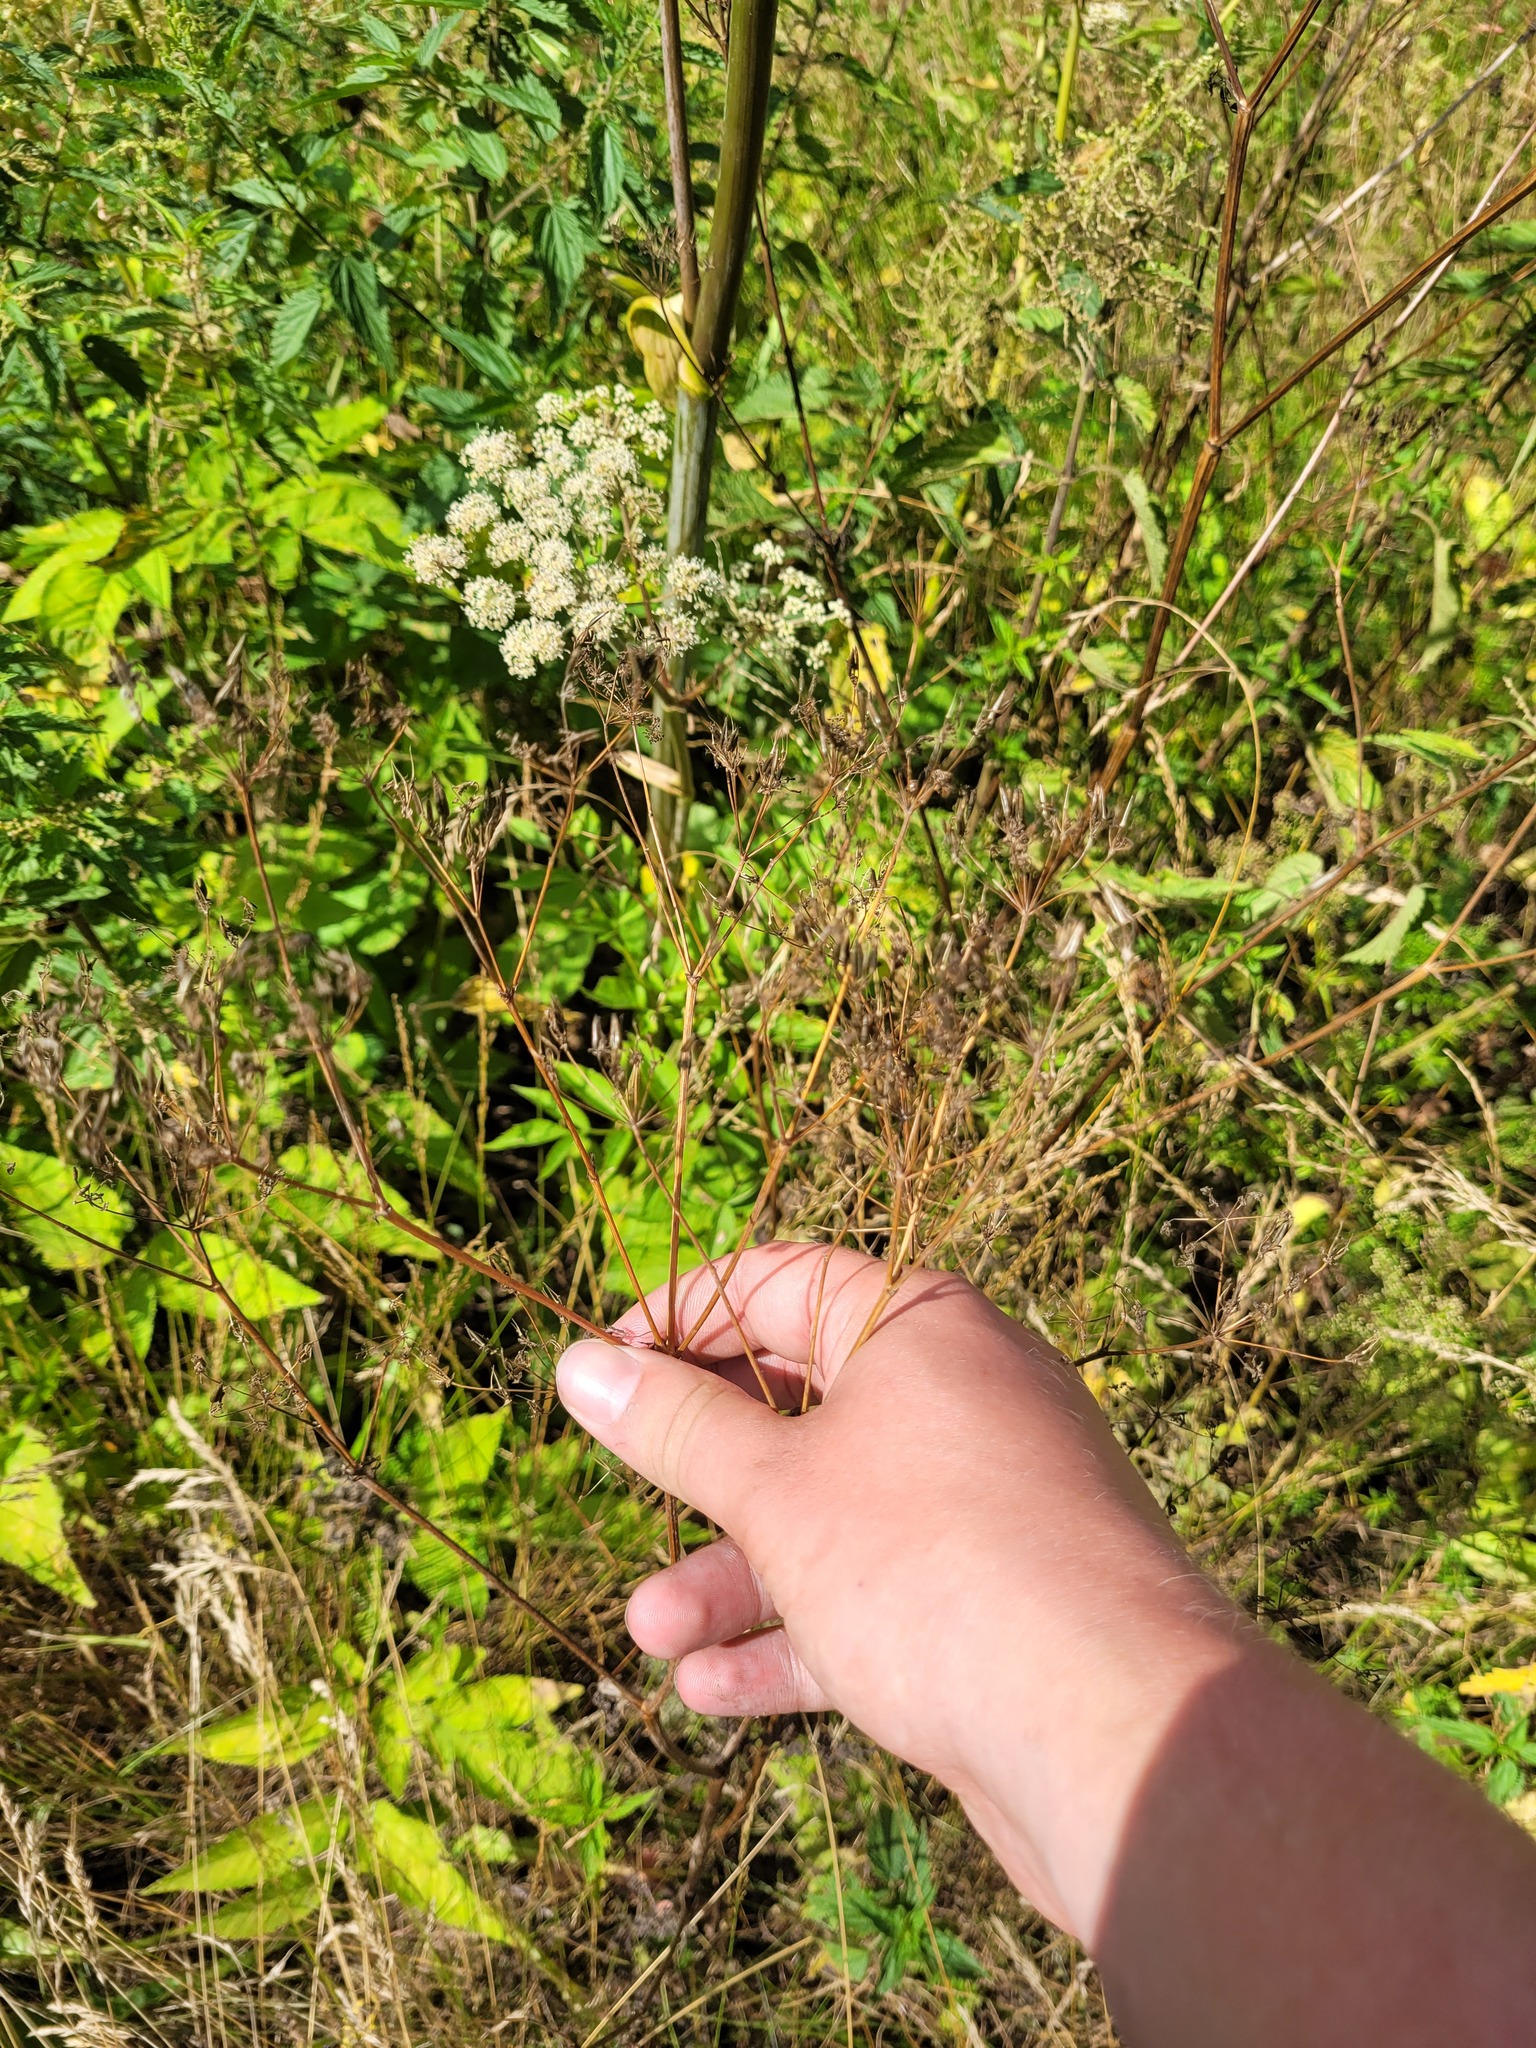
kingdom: Plantae
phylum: Tracheophyta
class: Magnoliopsida
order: Apiales
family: Apiaceae
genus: Anthriscus
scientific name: Anthriscus sylvestris
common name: Cow parsley
